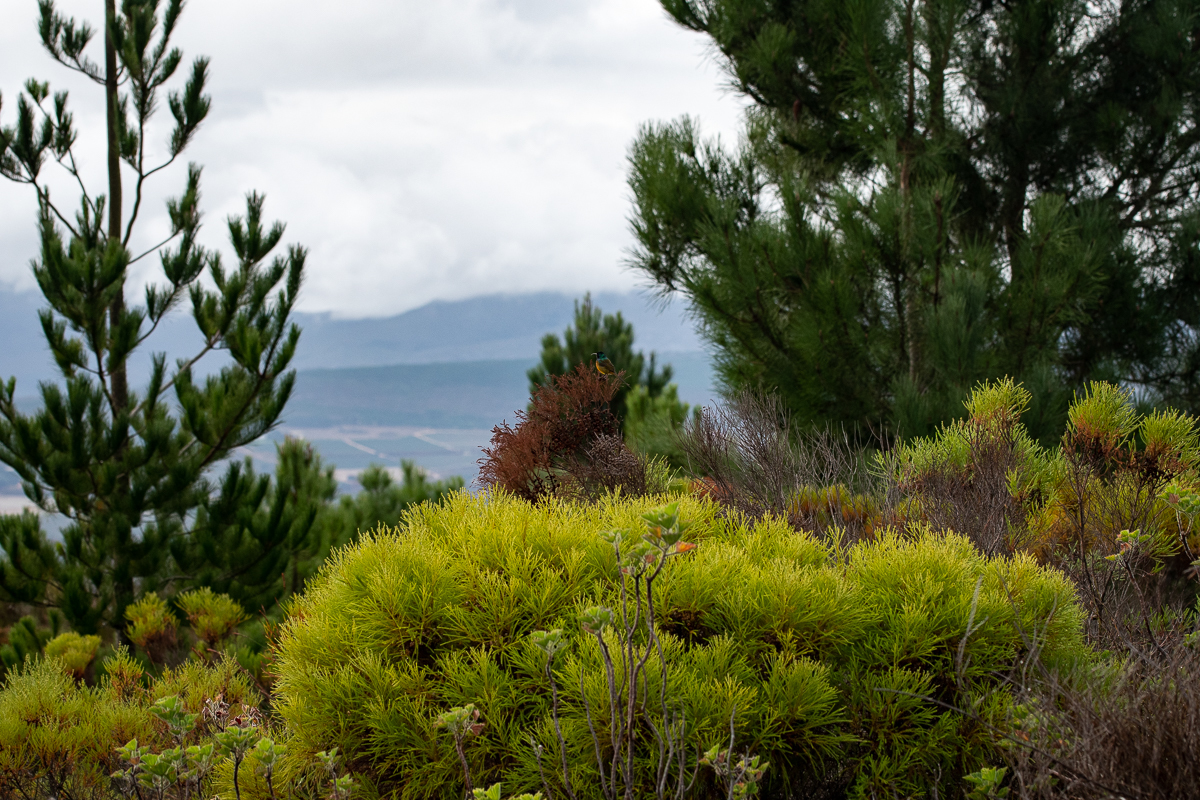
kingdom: Plantae
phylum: Tracheophyta
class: Magnoliopsida
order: Bruniales
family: Bruniaceae
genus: Berzelia
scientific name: Berzelia lanuginosa
